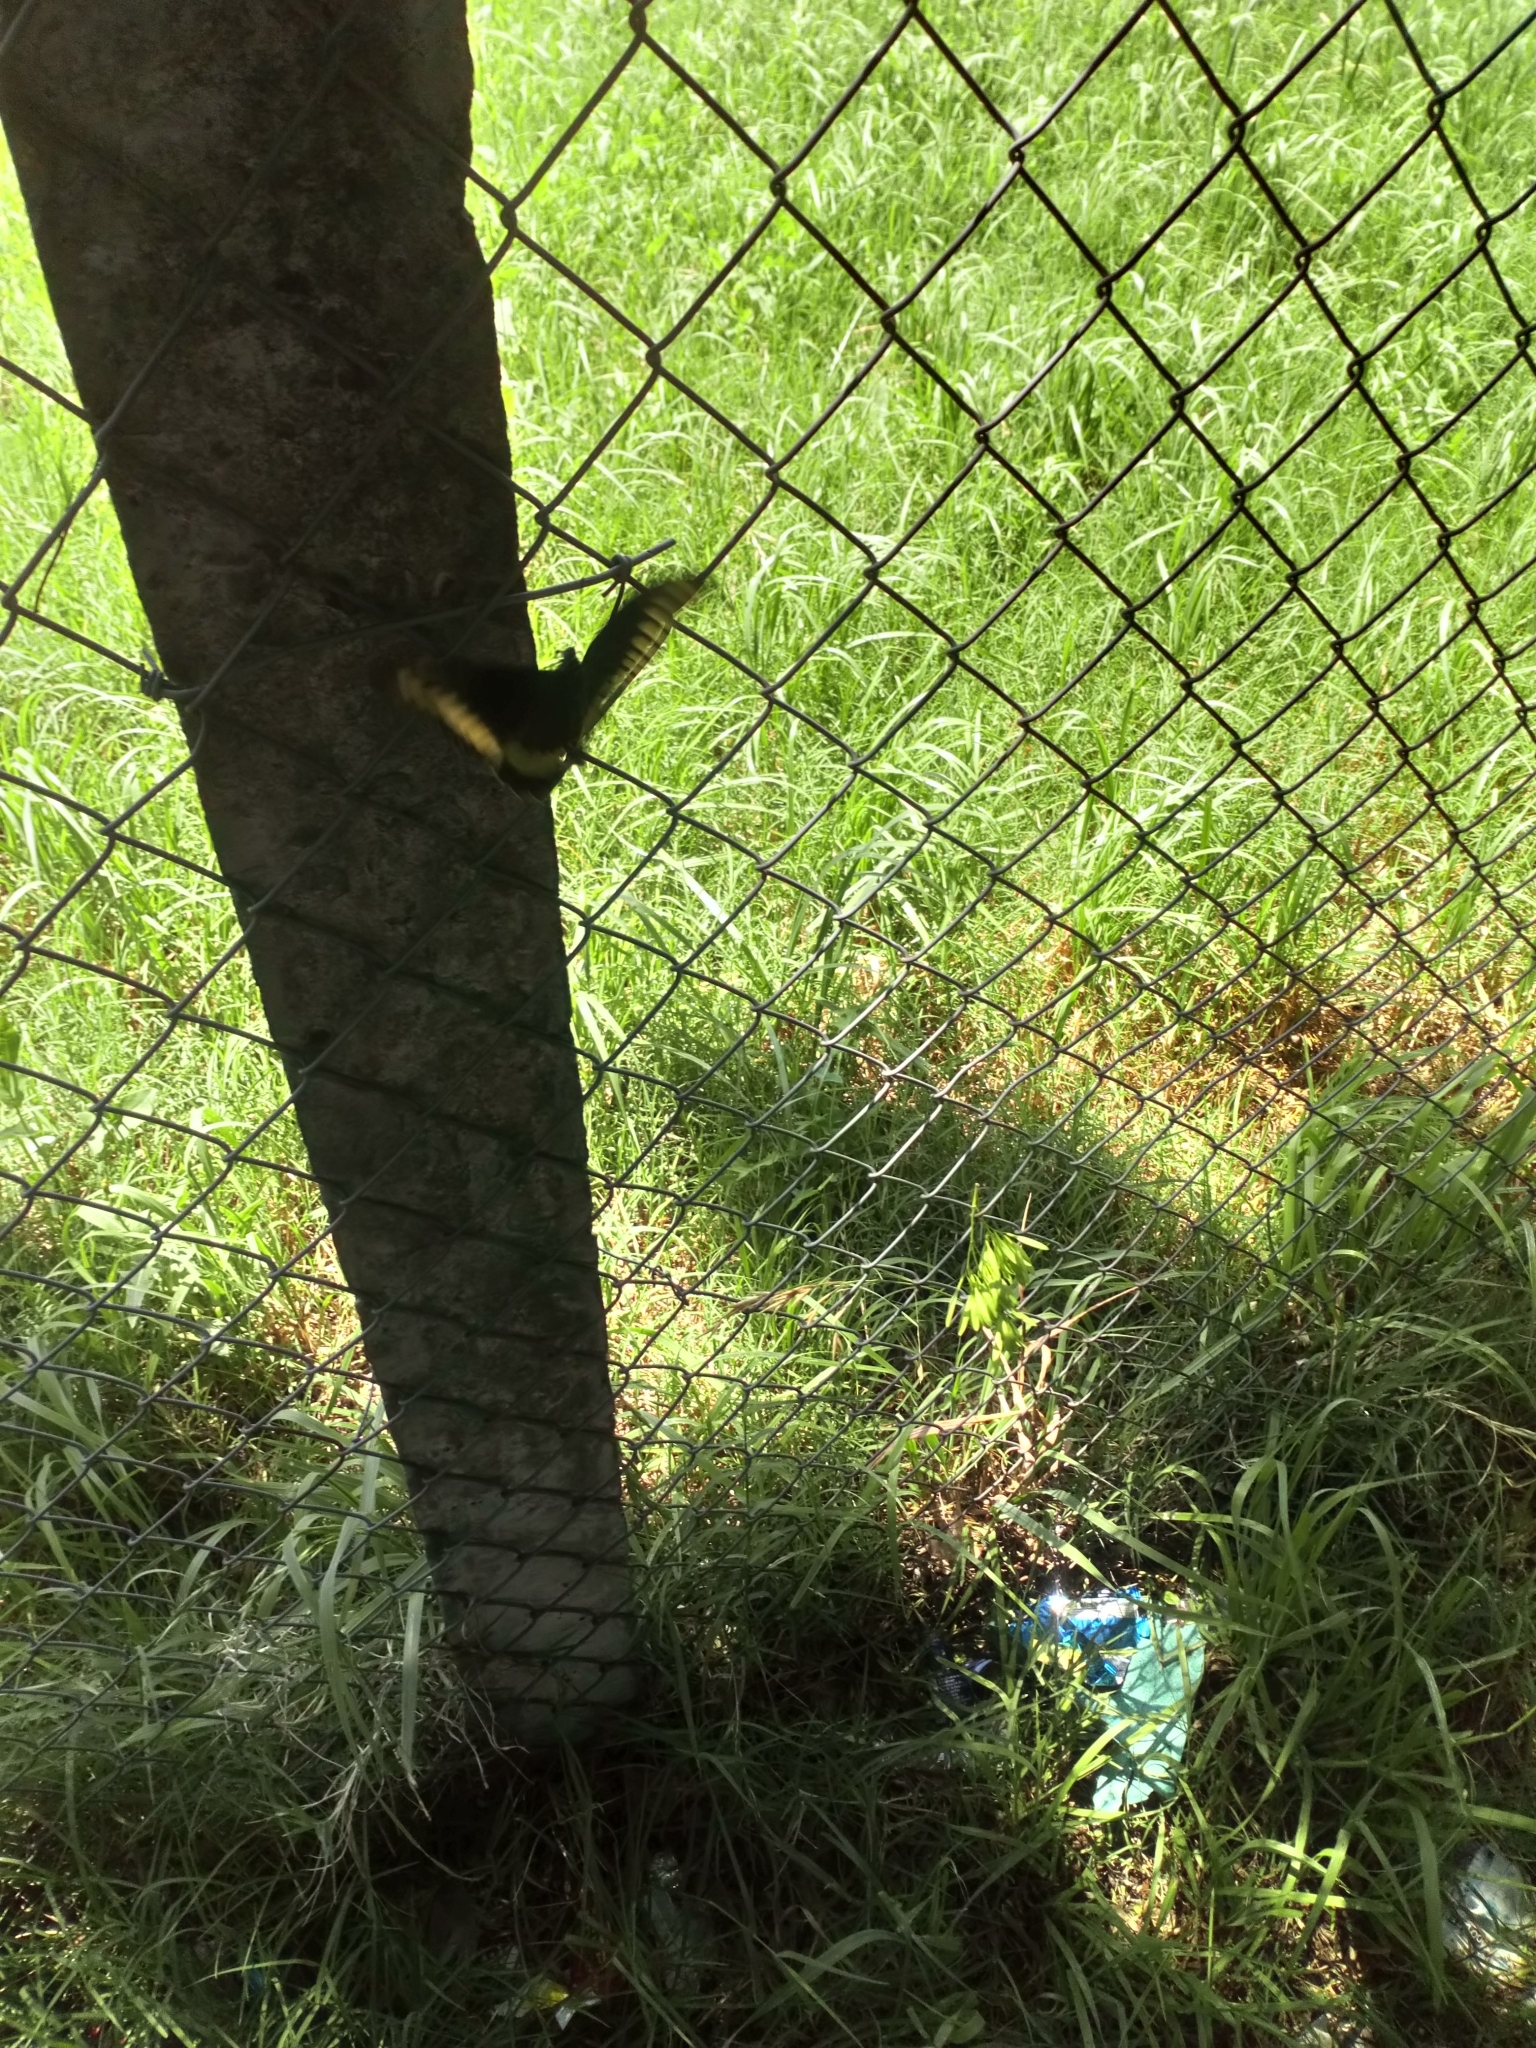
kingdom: Animalia
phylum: Arthropoda
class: Insecta
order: Lepidoptera
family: Papilionidae
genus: Battus
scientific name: Battus polydamas
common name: Polydamas swallowtail
